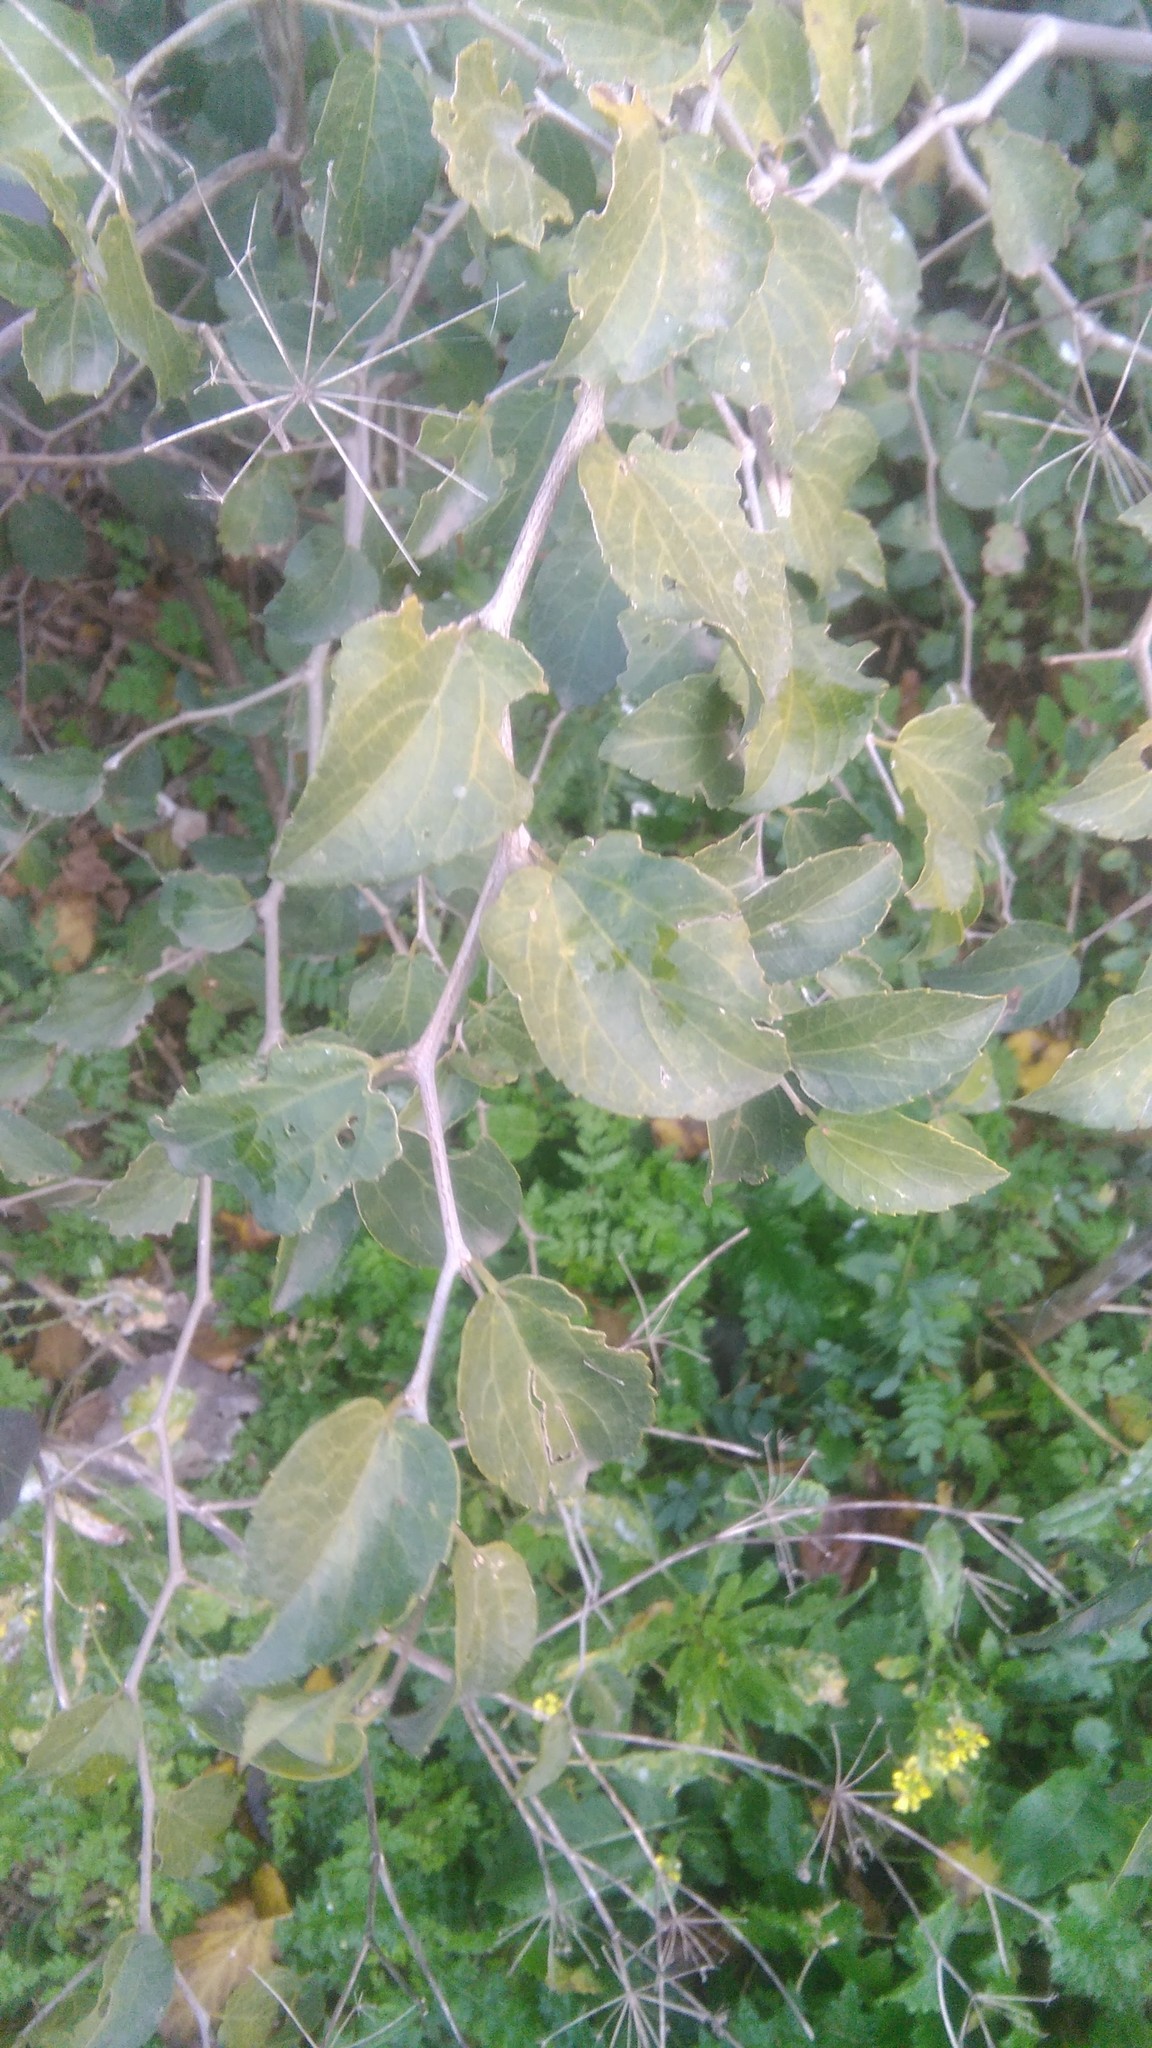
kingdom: Plantae
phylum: Tracheophyta
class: Magnoliopsida
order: Rosales
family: Cannabaceae
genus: Celtis
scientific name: Celtis tala
